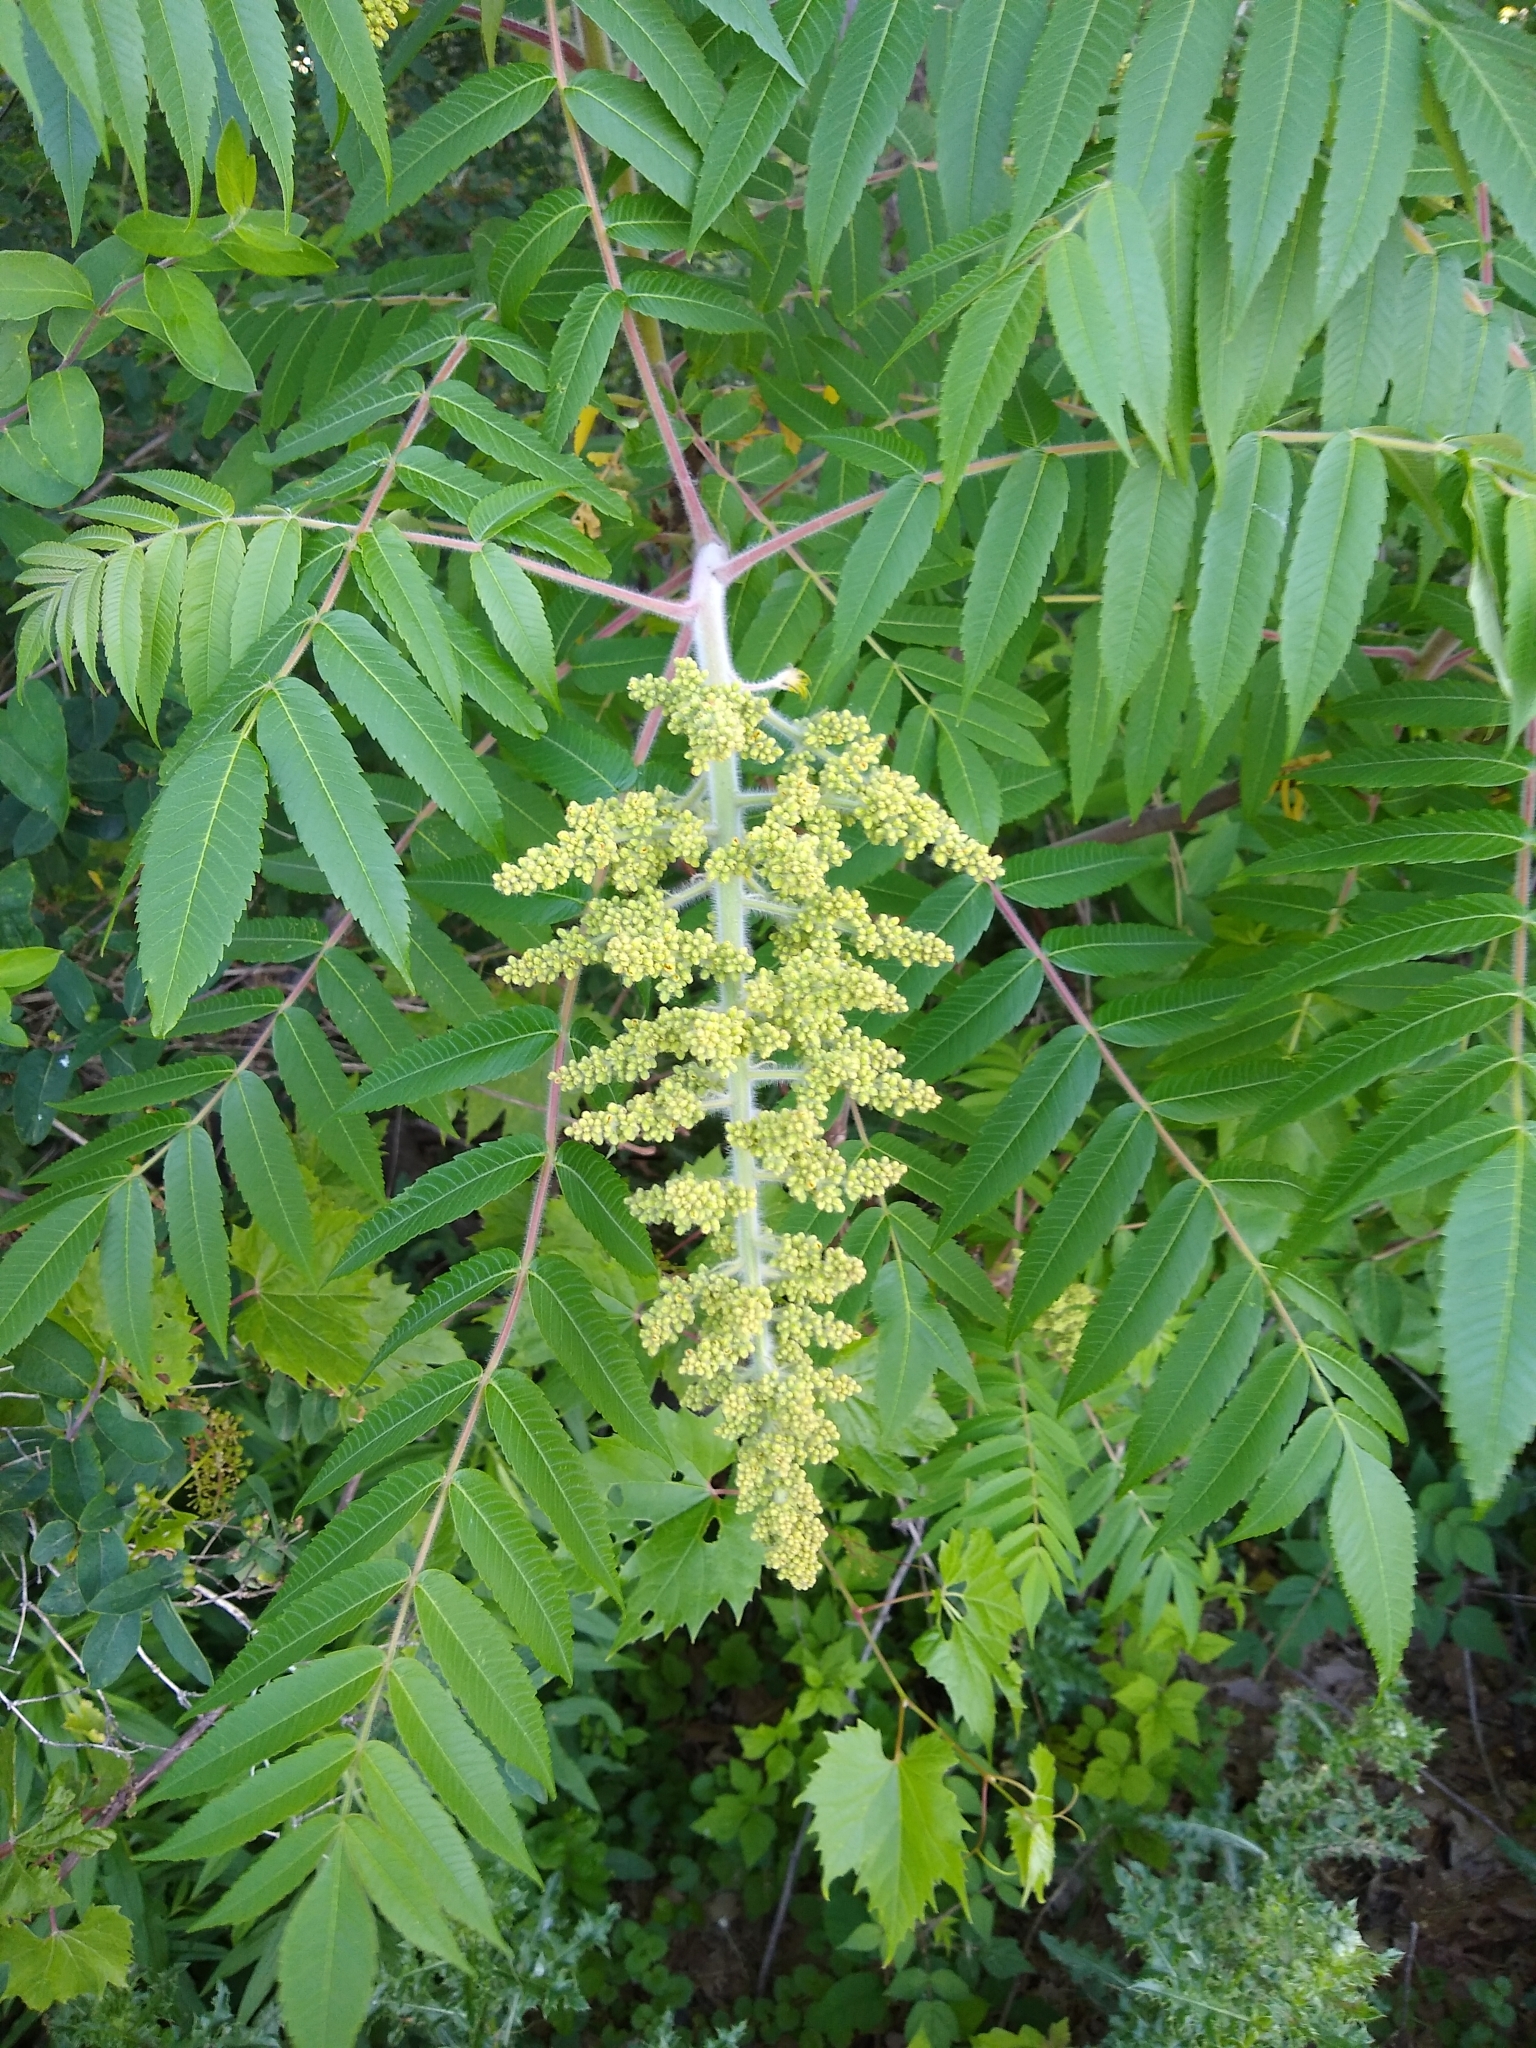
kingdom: Plantae
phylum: Tracheophyta
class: Magnoliopsida
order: Sapindales
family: Anacardiaceae
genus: Rhus
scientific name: Rhus typhina
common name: Staghorn sumac
